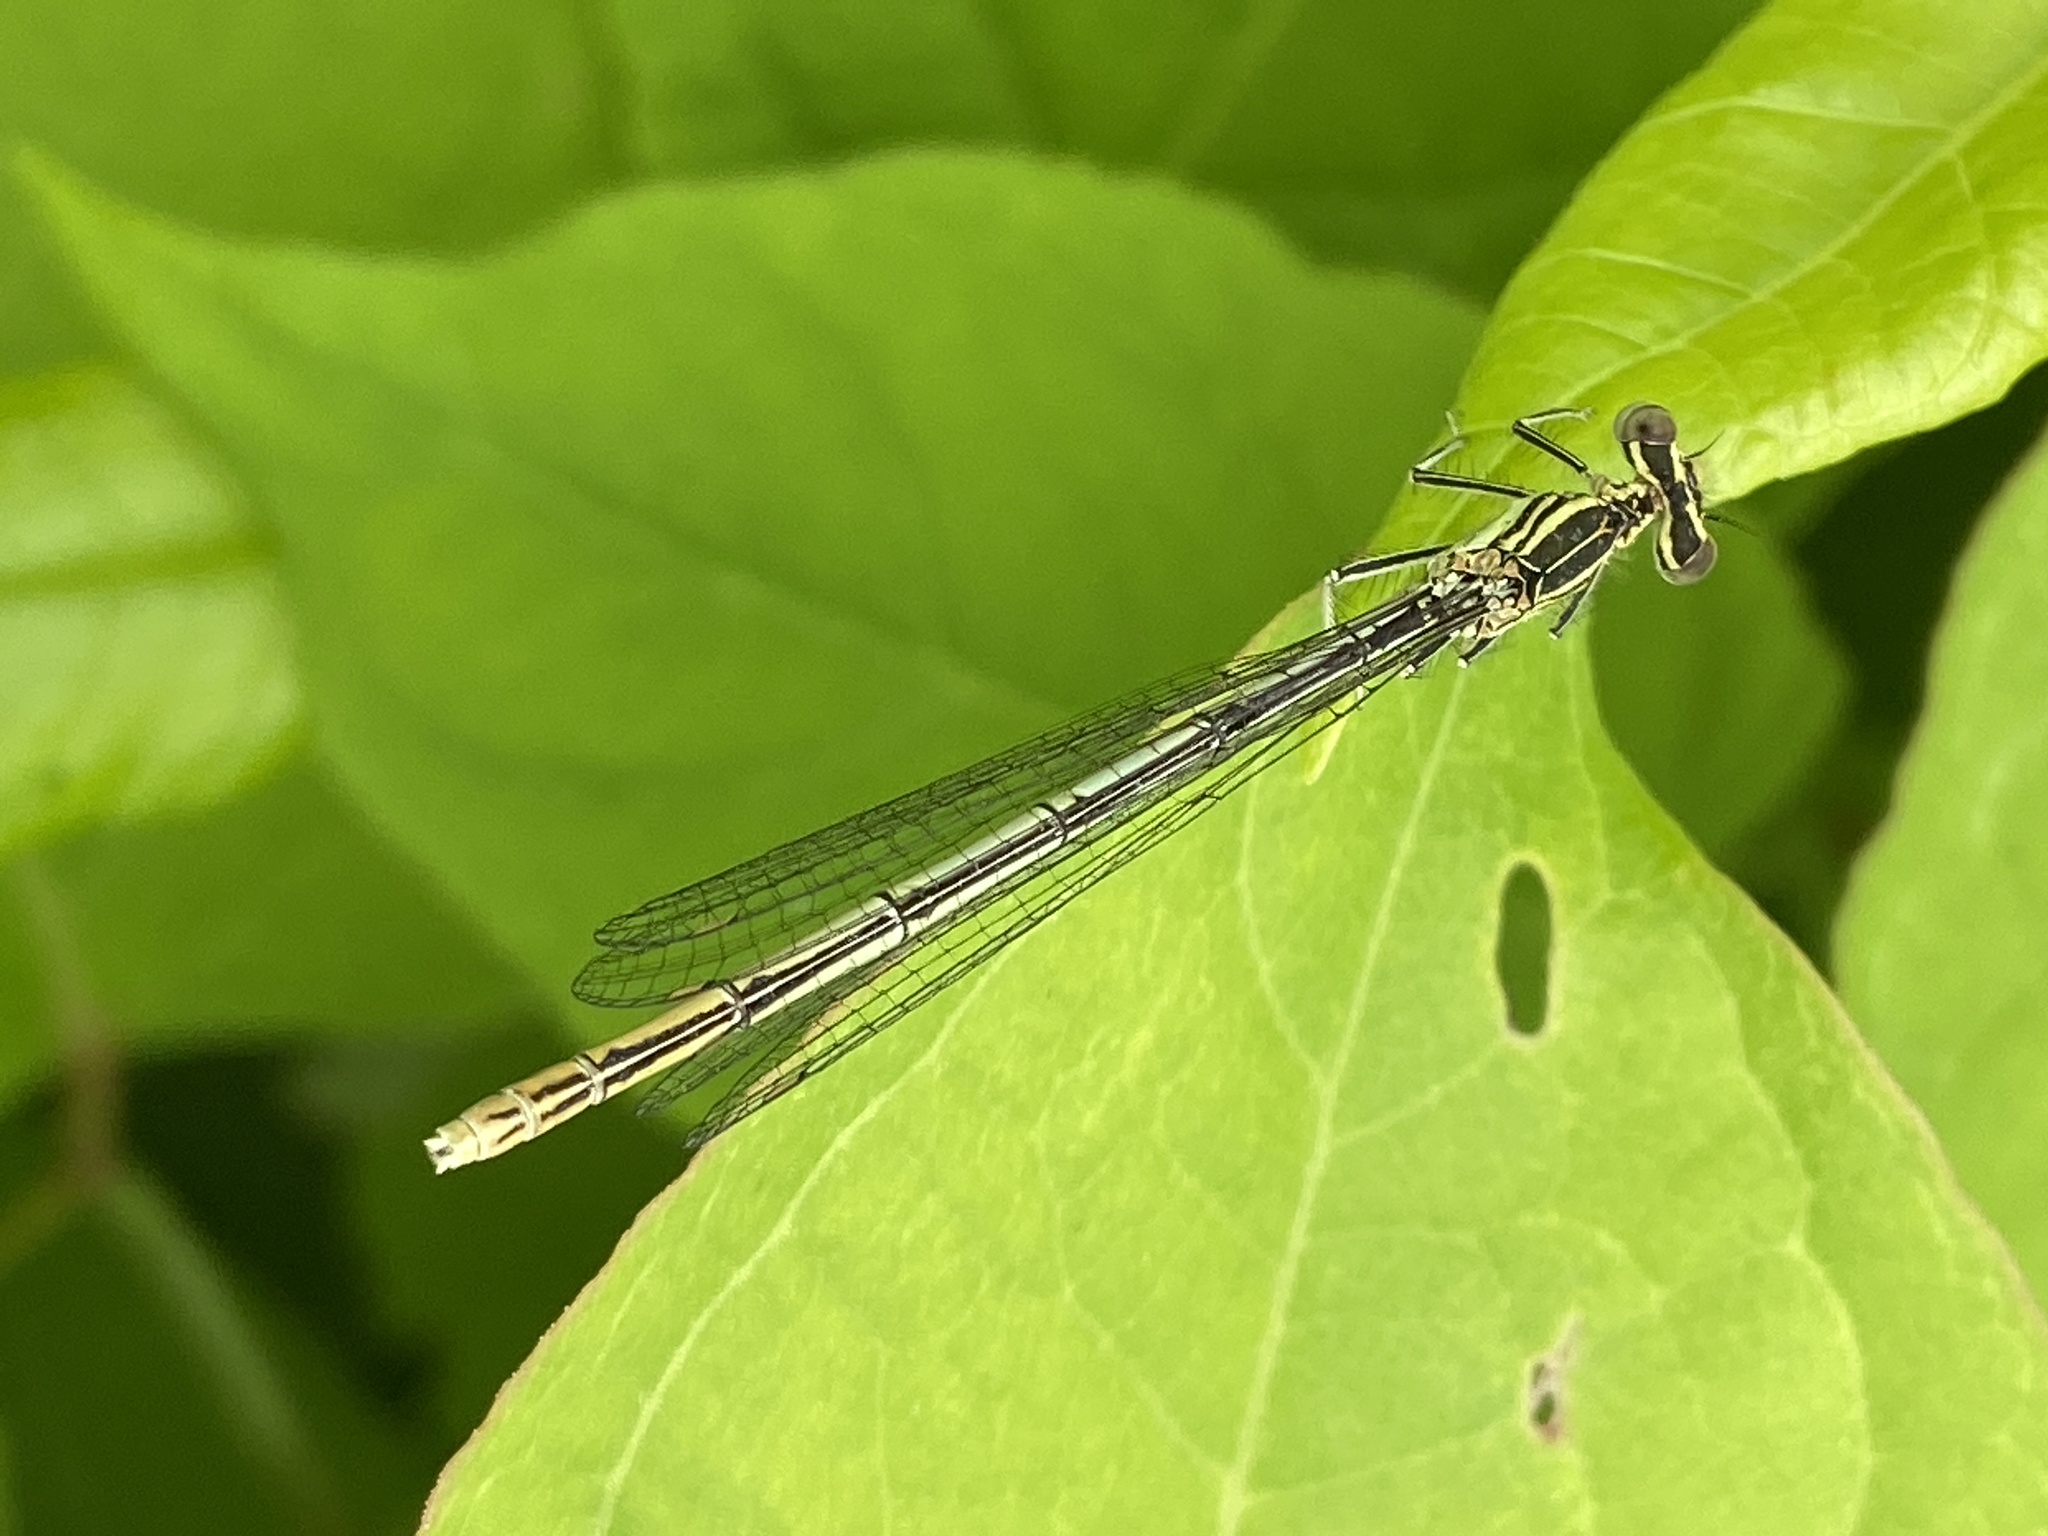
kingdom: Animalia
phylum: Arthropoda
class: Insecta
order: Odonata
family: Platycnemididae
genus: Platycnemis
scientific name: Platycnemis pennipes
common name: White-legged damselfly
